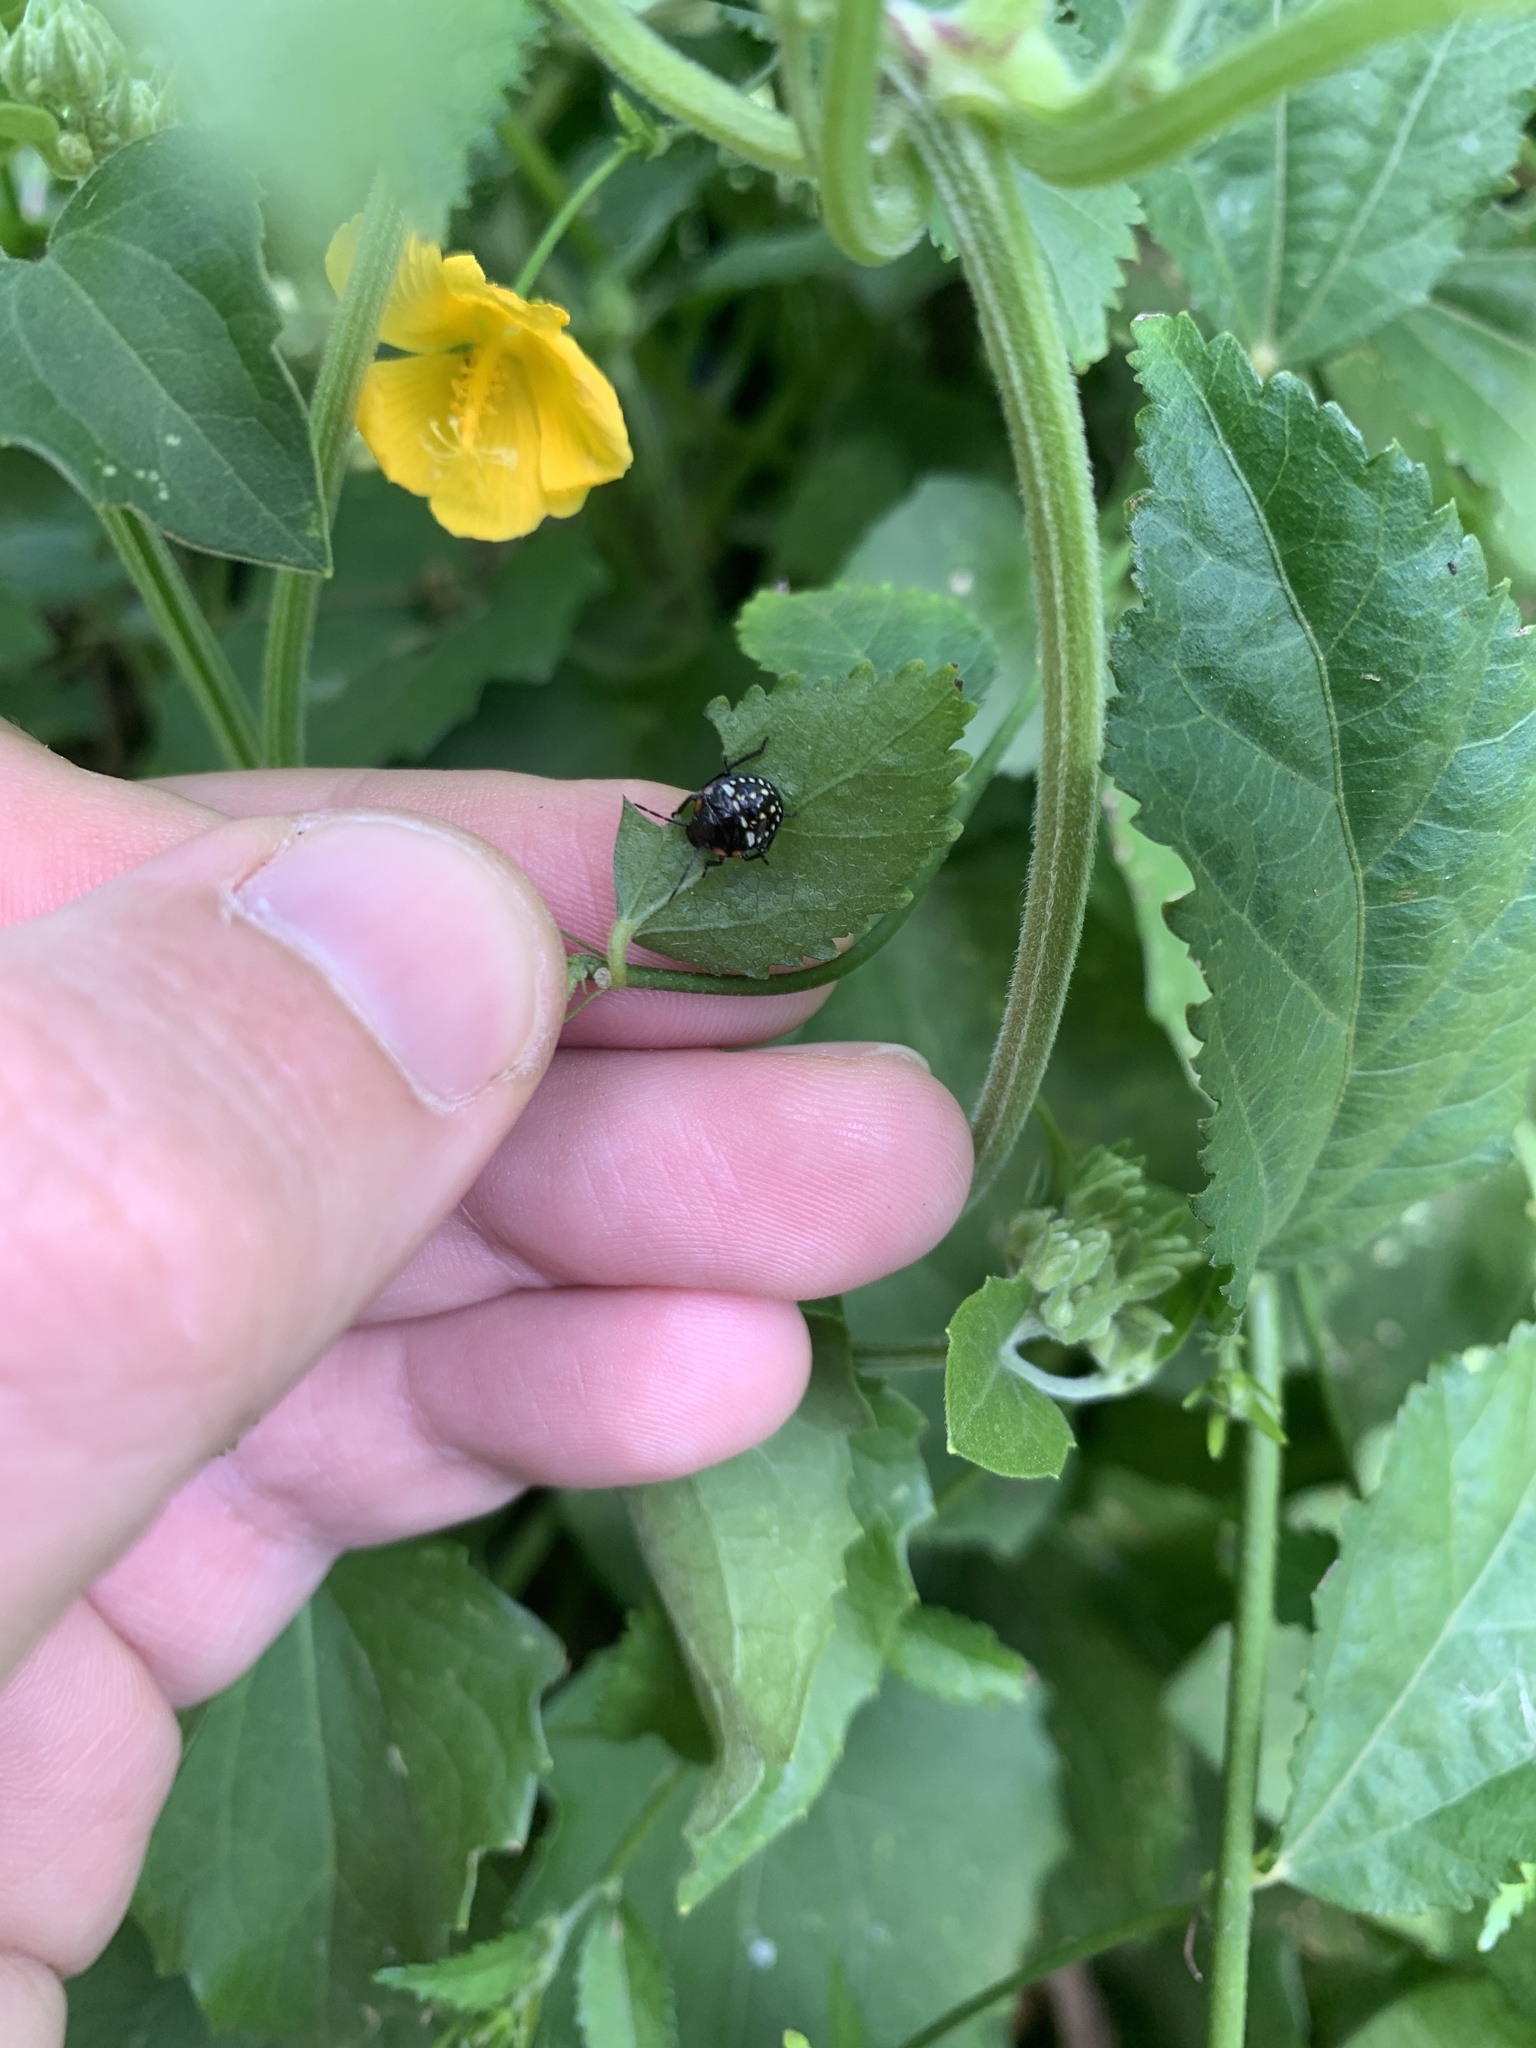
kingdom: Animalia
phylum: Arthropoda
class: Insecta
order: Hemiptera
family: Pentatomidae
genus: Nezara
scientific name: Nezara viridula
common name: Southern green stink bug
